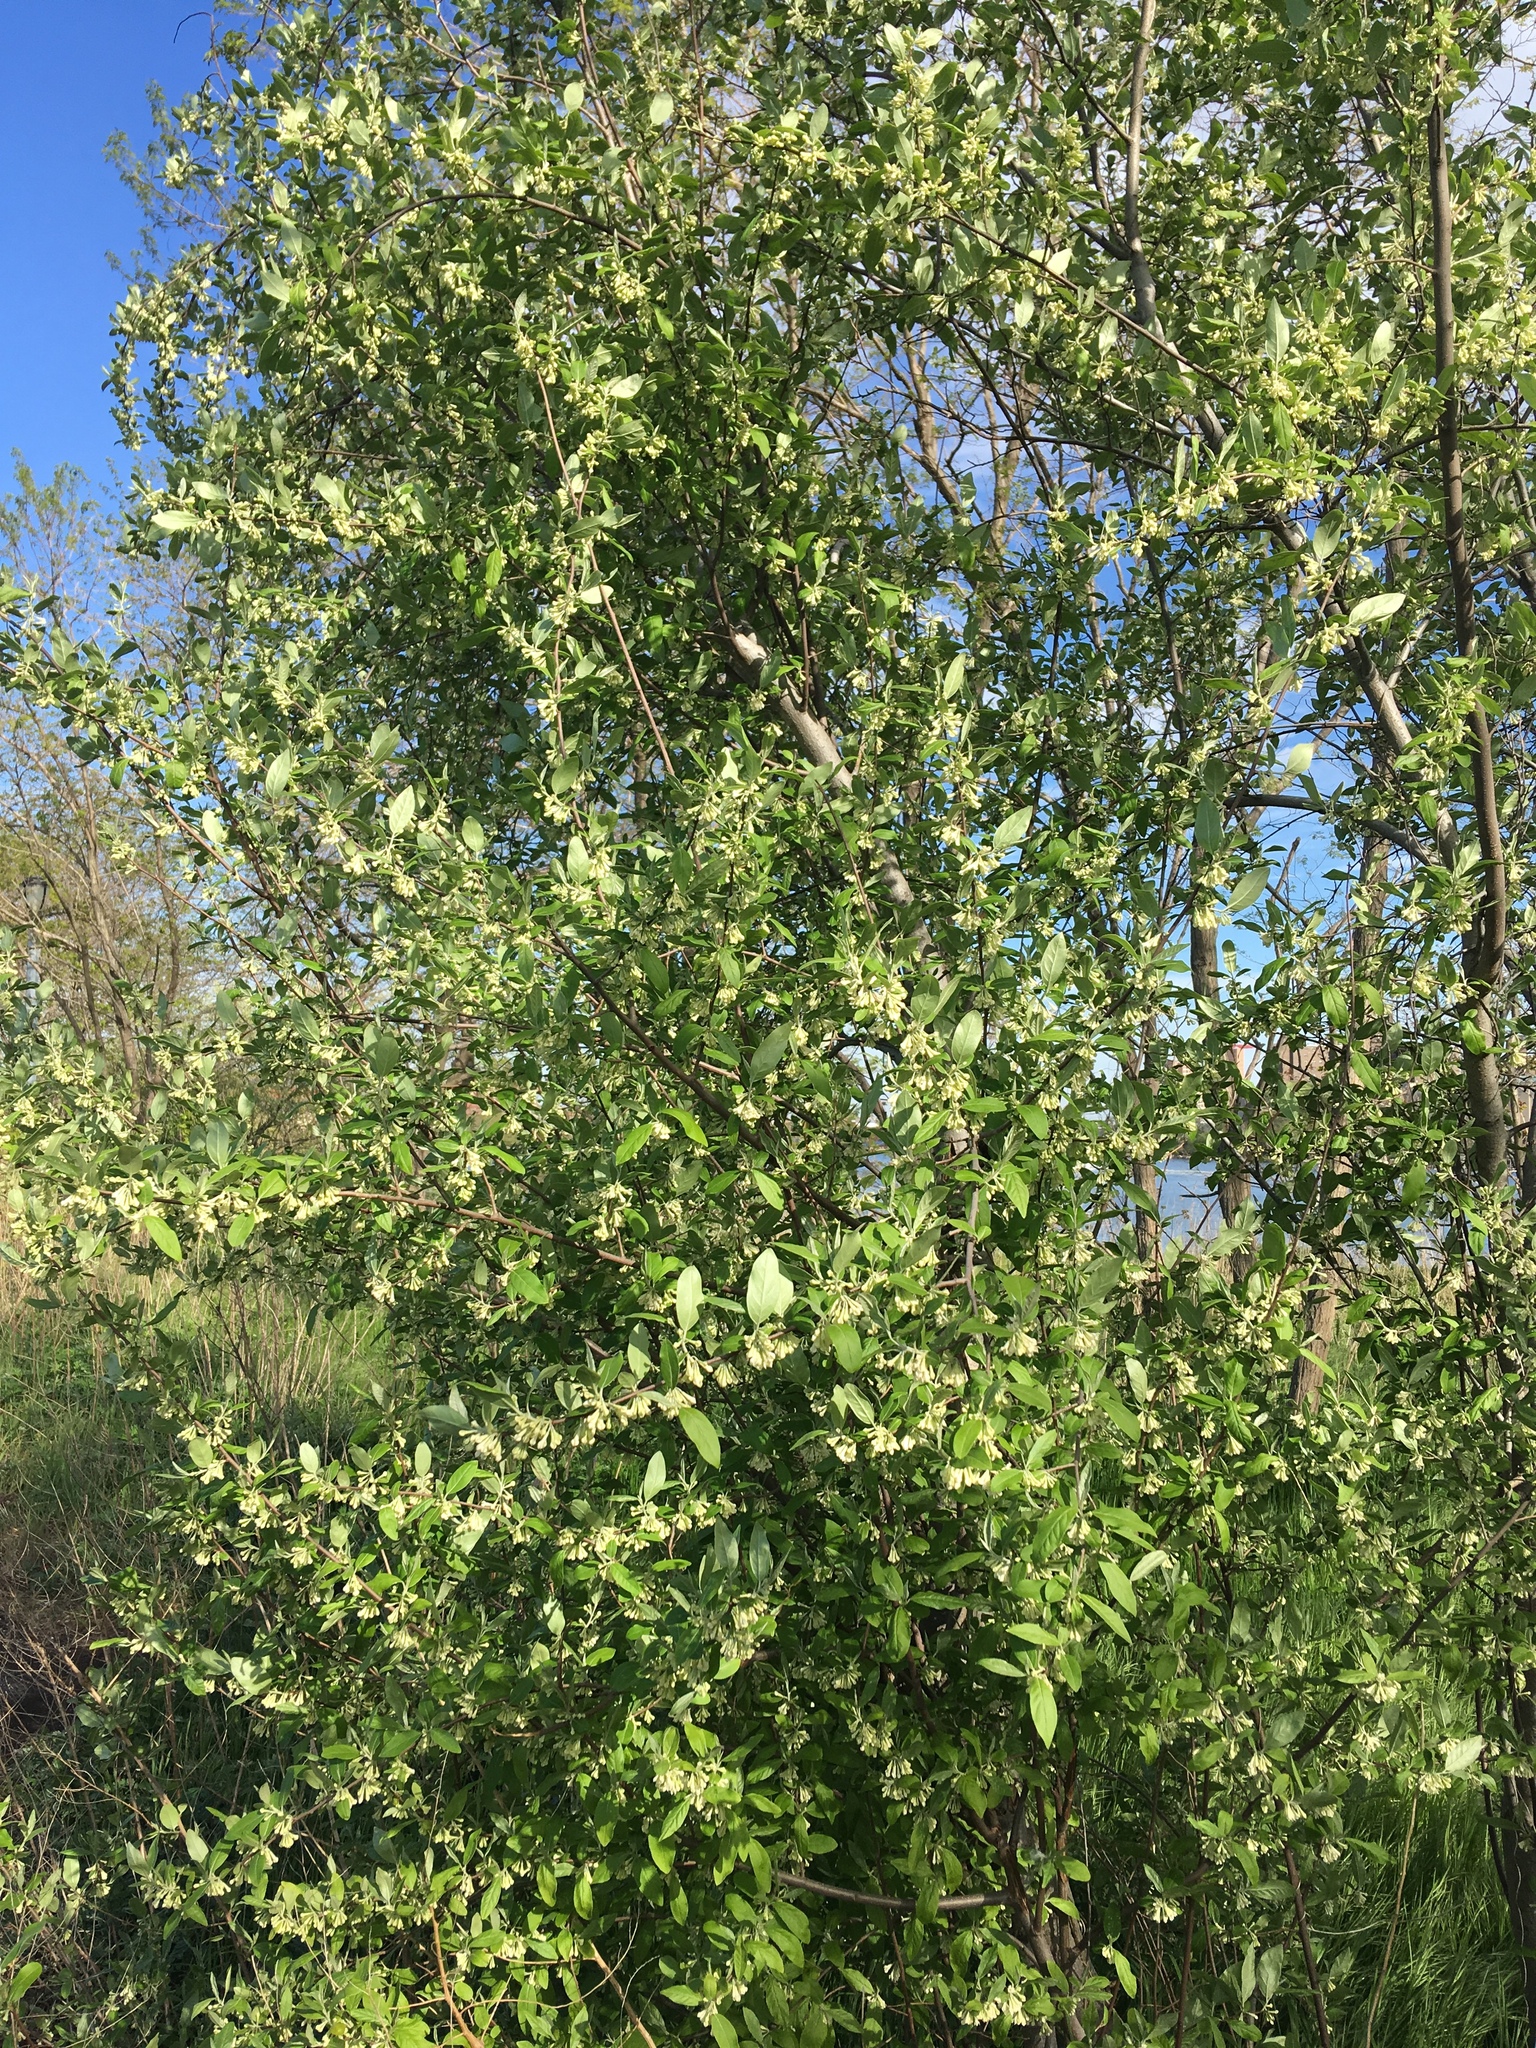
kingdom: Plantae
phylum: Tracheophyta
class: Magnoliopsida
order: Rosales
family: Elaeagnaceae
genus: Elaeagnus
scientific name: Elaeagnus umbellata
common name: Autumn olive
